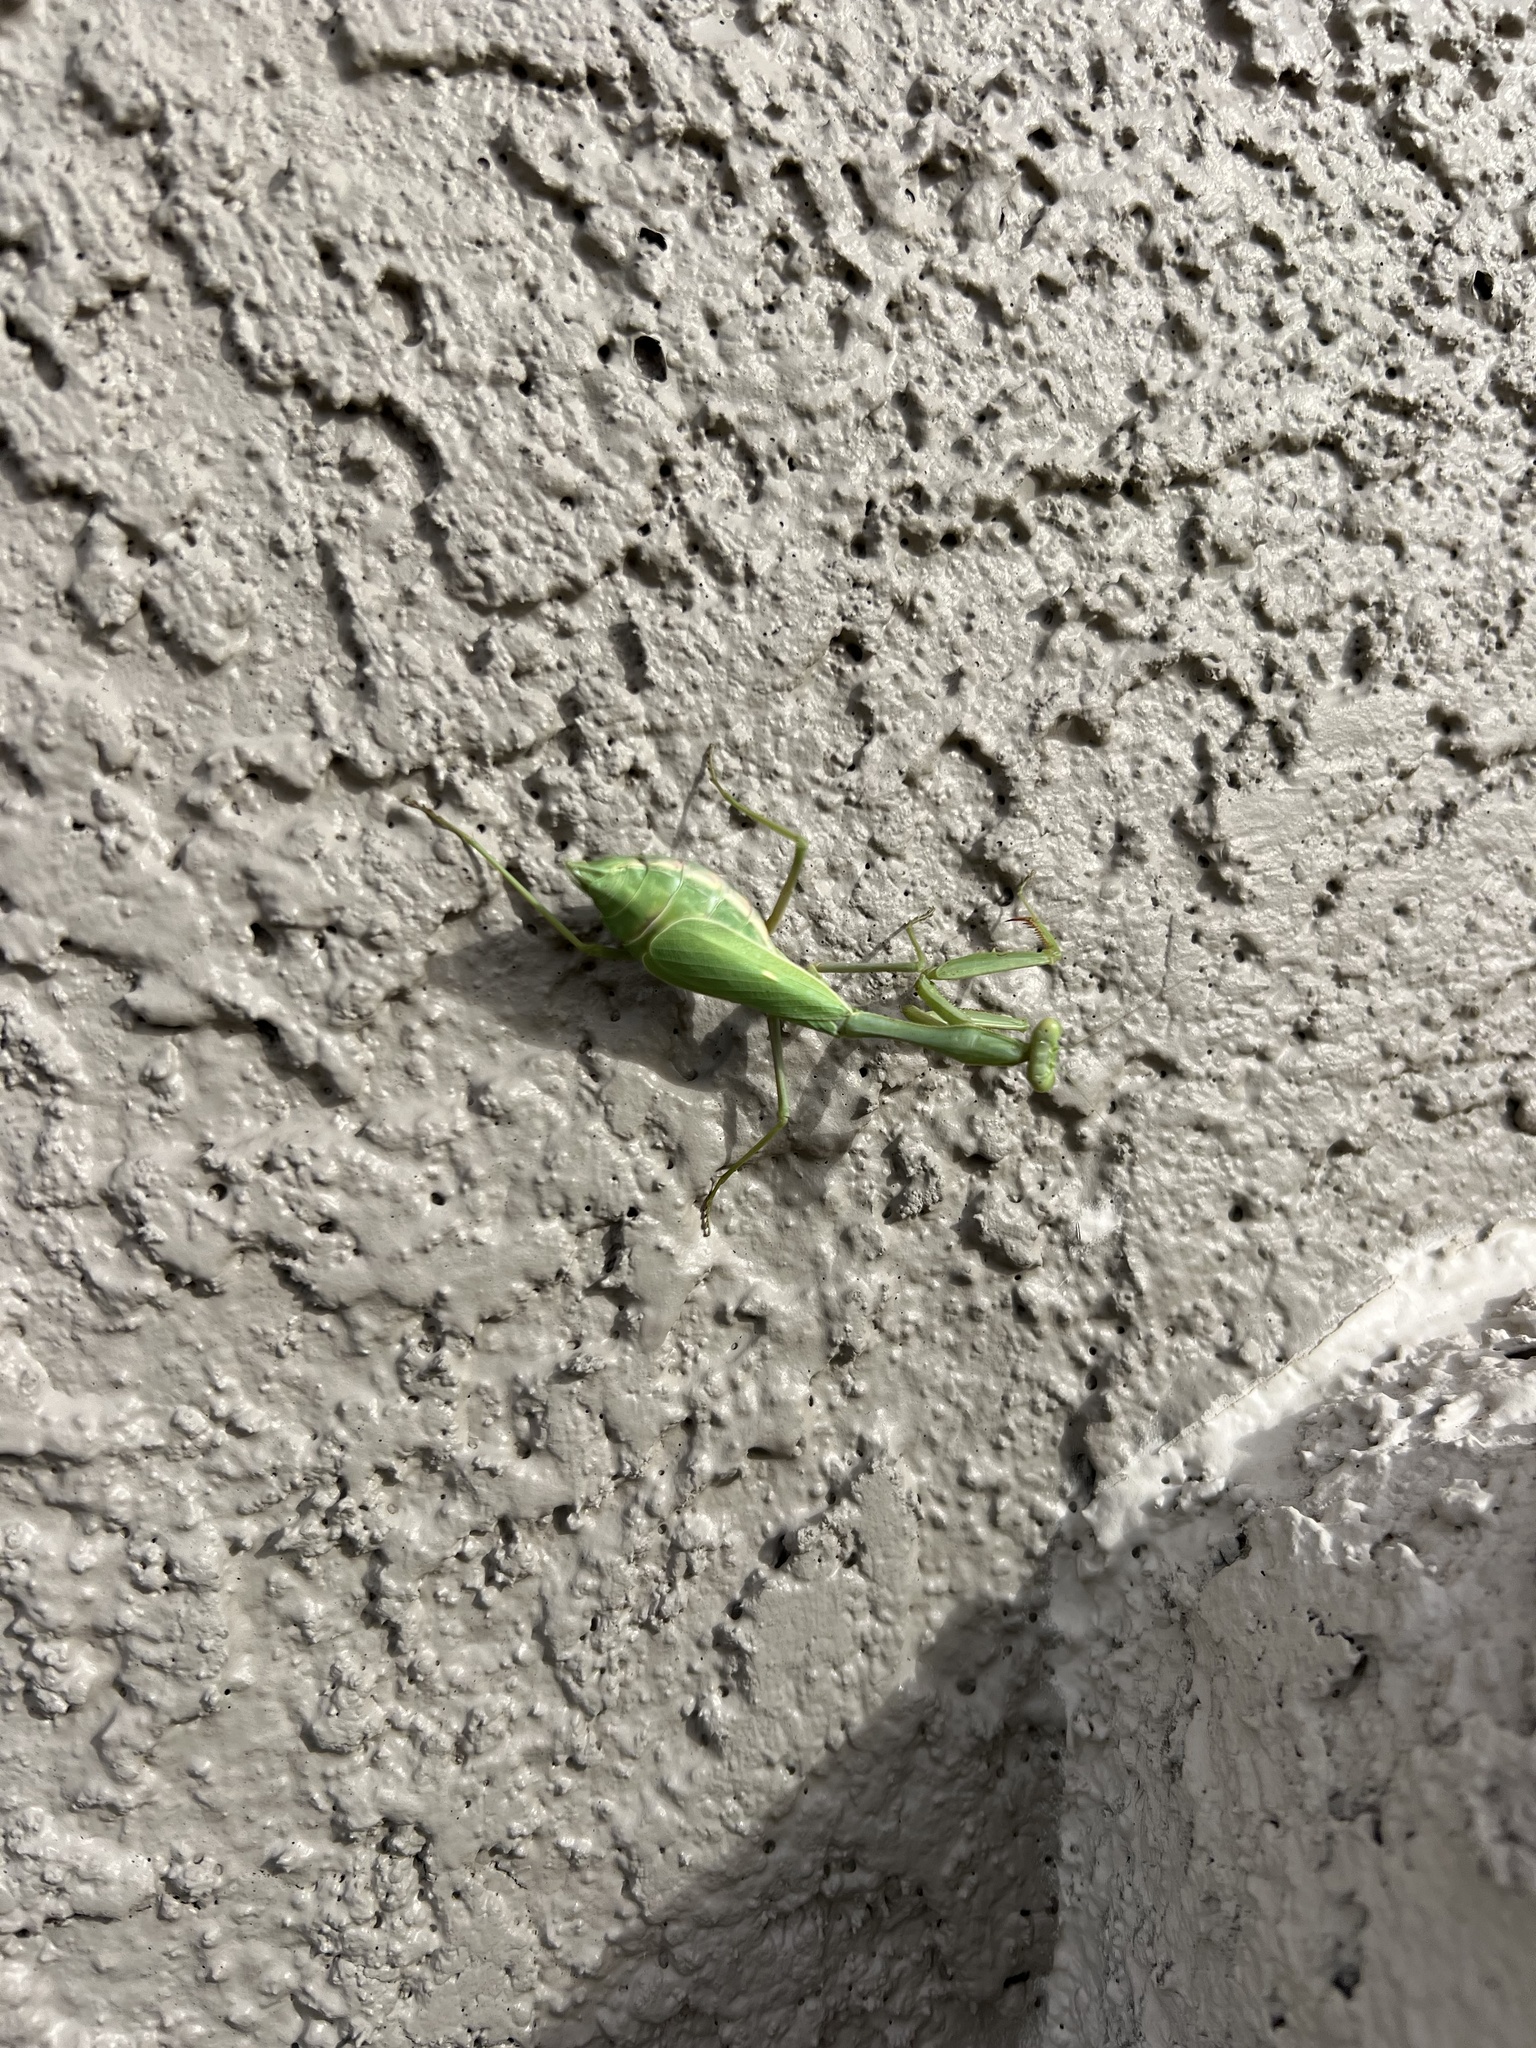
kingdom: Animalia
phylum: Arthropoda
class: Insecta
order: Mantodea
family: Mantidae
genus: Stagmomantis
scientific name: Stagmomantis limbata
